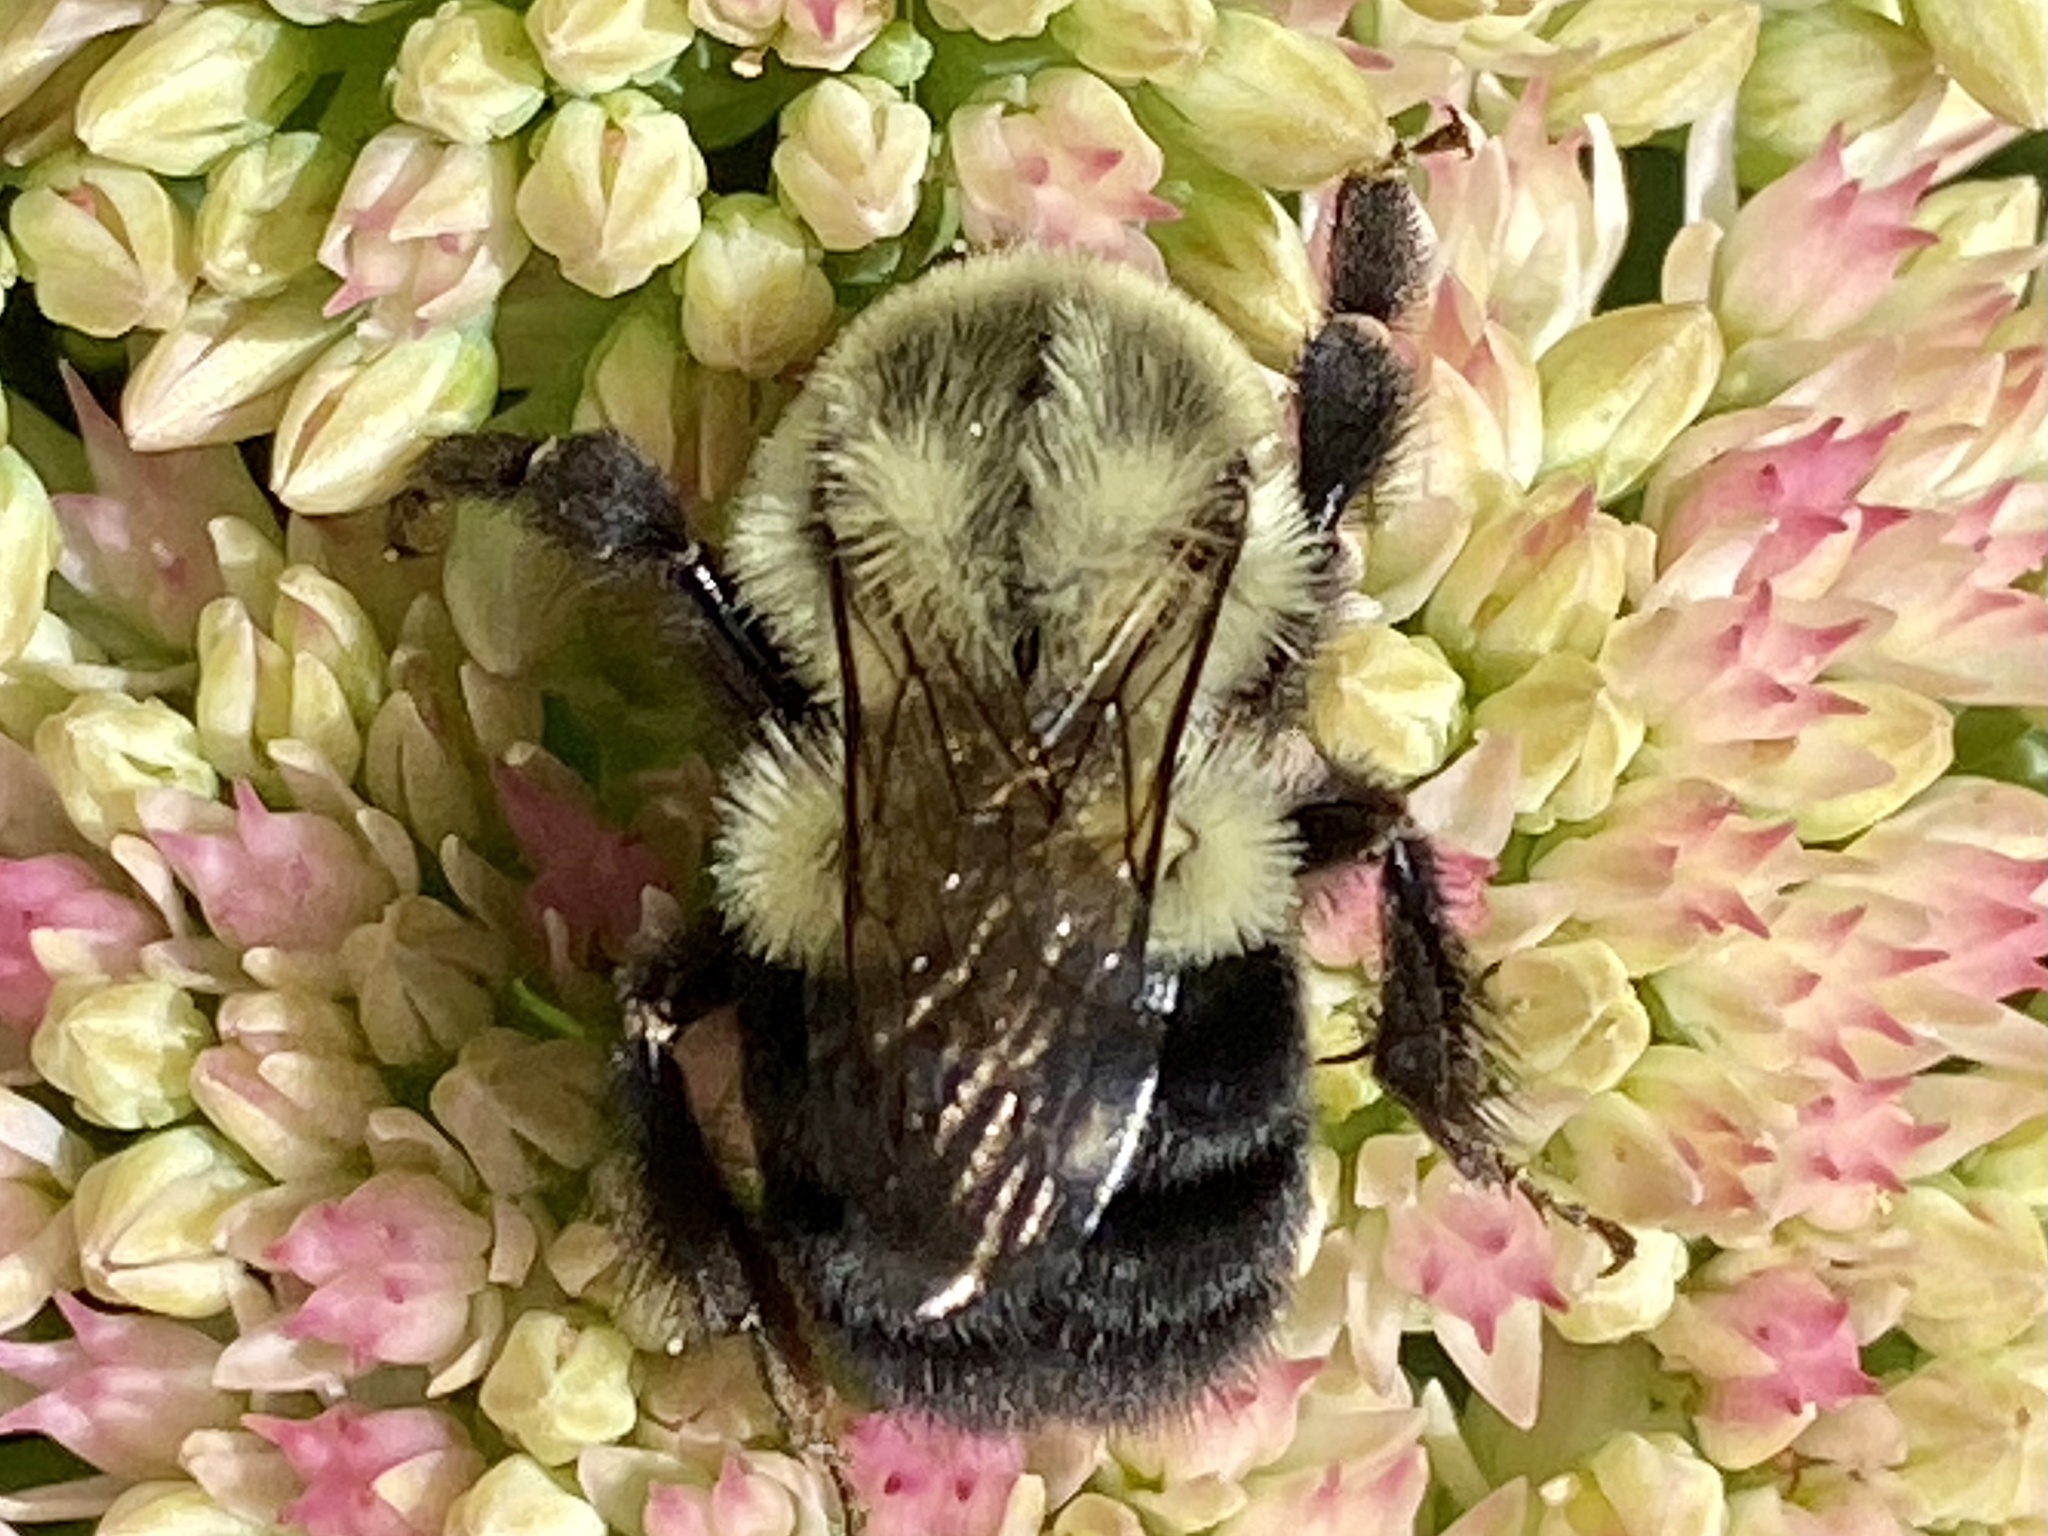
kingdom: Animalia
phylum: Arthropoda
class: Insecta
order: Hymenoptera
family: Apidae
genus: Bombus
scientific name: Bombus impatiens
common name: Common eastern bumble bee
